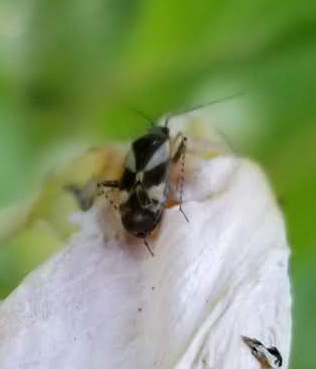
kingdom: Animalia
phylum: Arthropoda
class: Insecta
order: Hemiptera
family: Miridae
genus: Plagiognathus
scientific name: Plagiognathus obscurus
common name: Obscure plant bug
